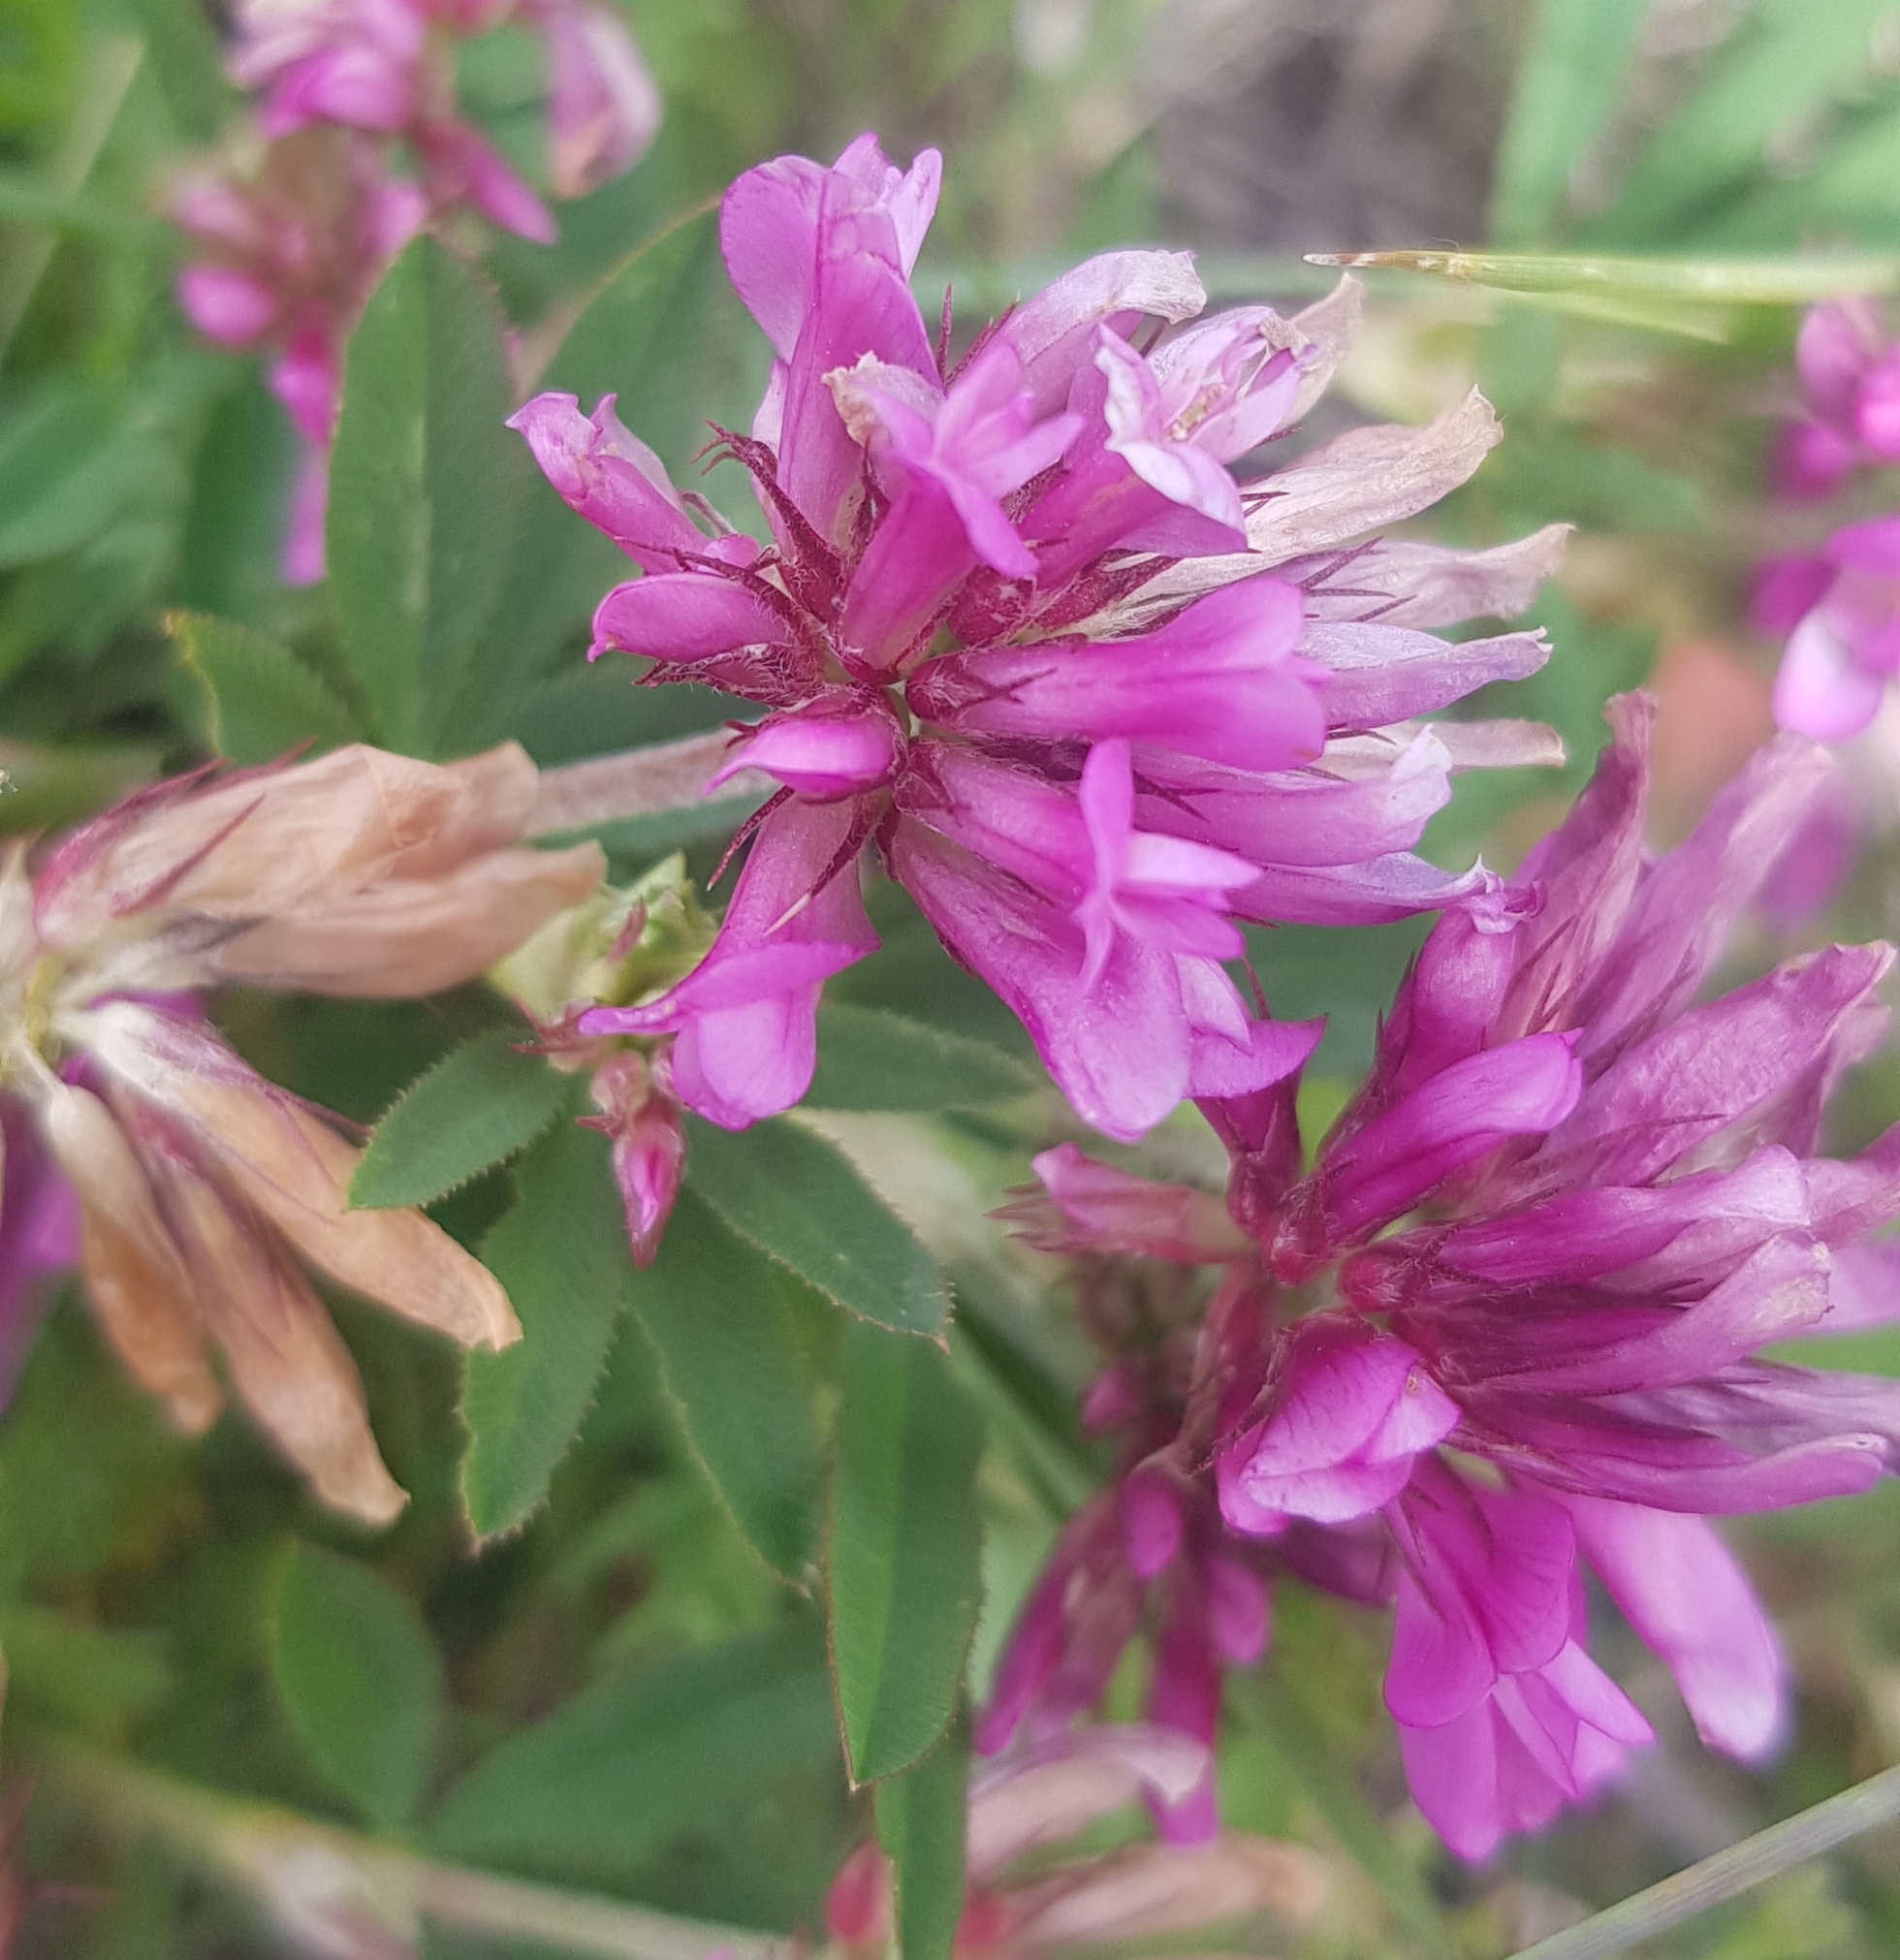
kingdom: Plantae
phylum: Tracheophyta
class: Magnoliopsida
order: Fabales
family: Fabaceae
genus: Trifolium
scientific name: Trifolium lupinaster
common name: Lupine clover
